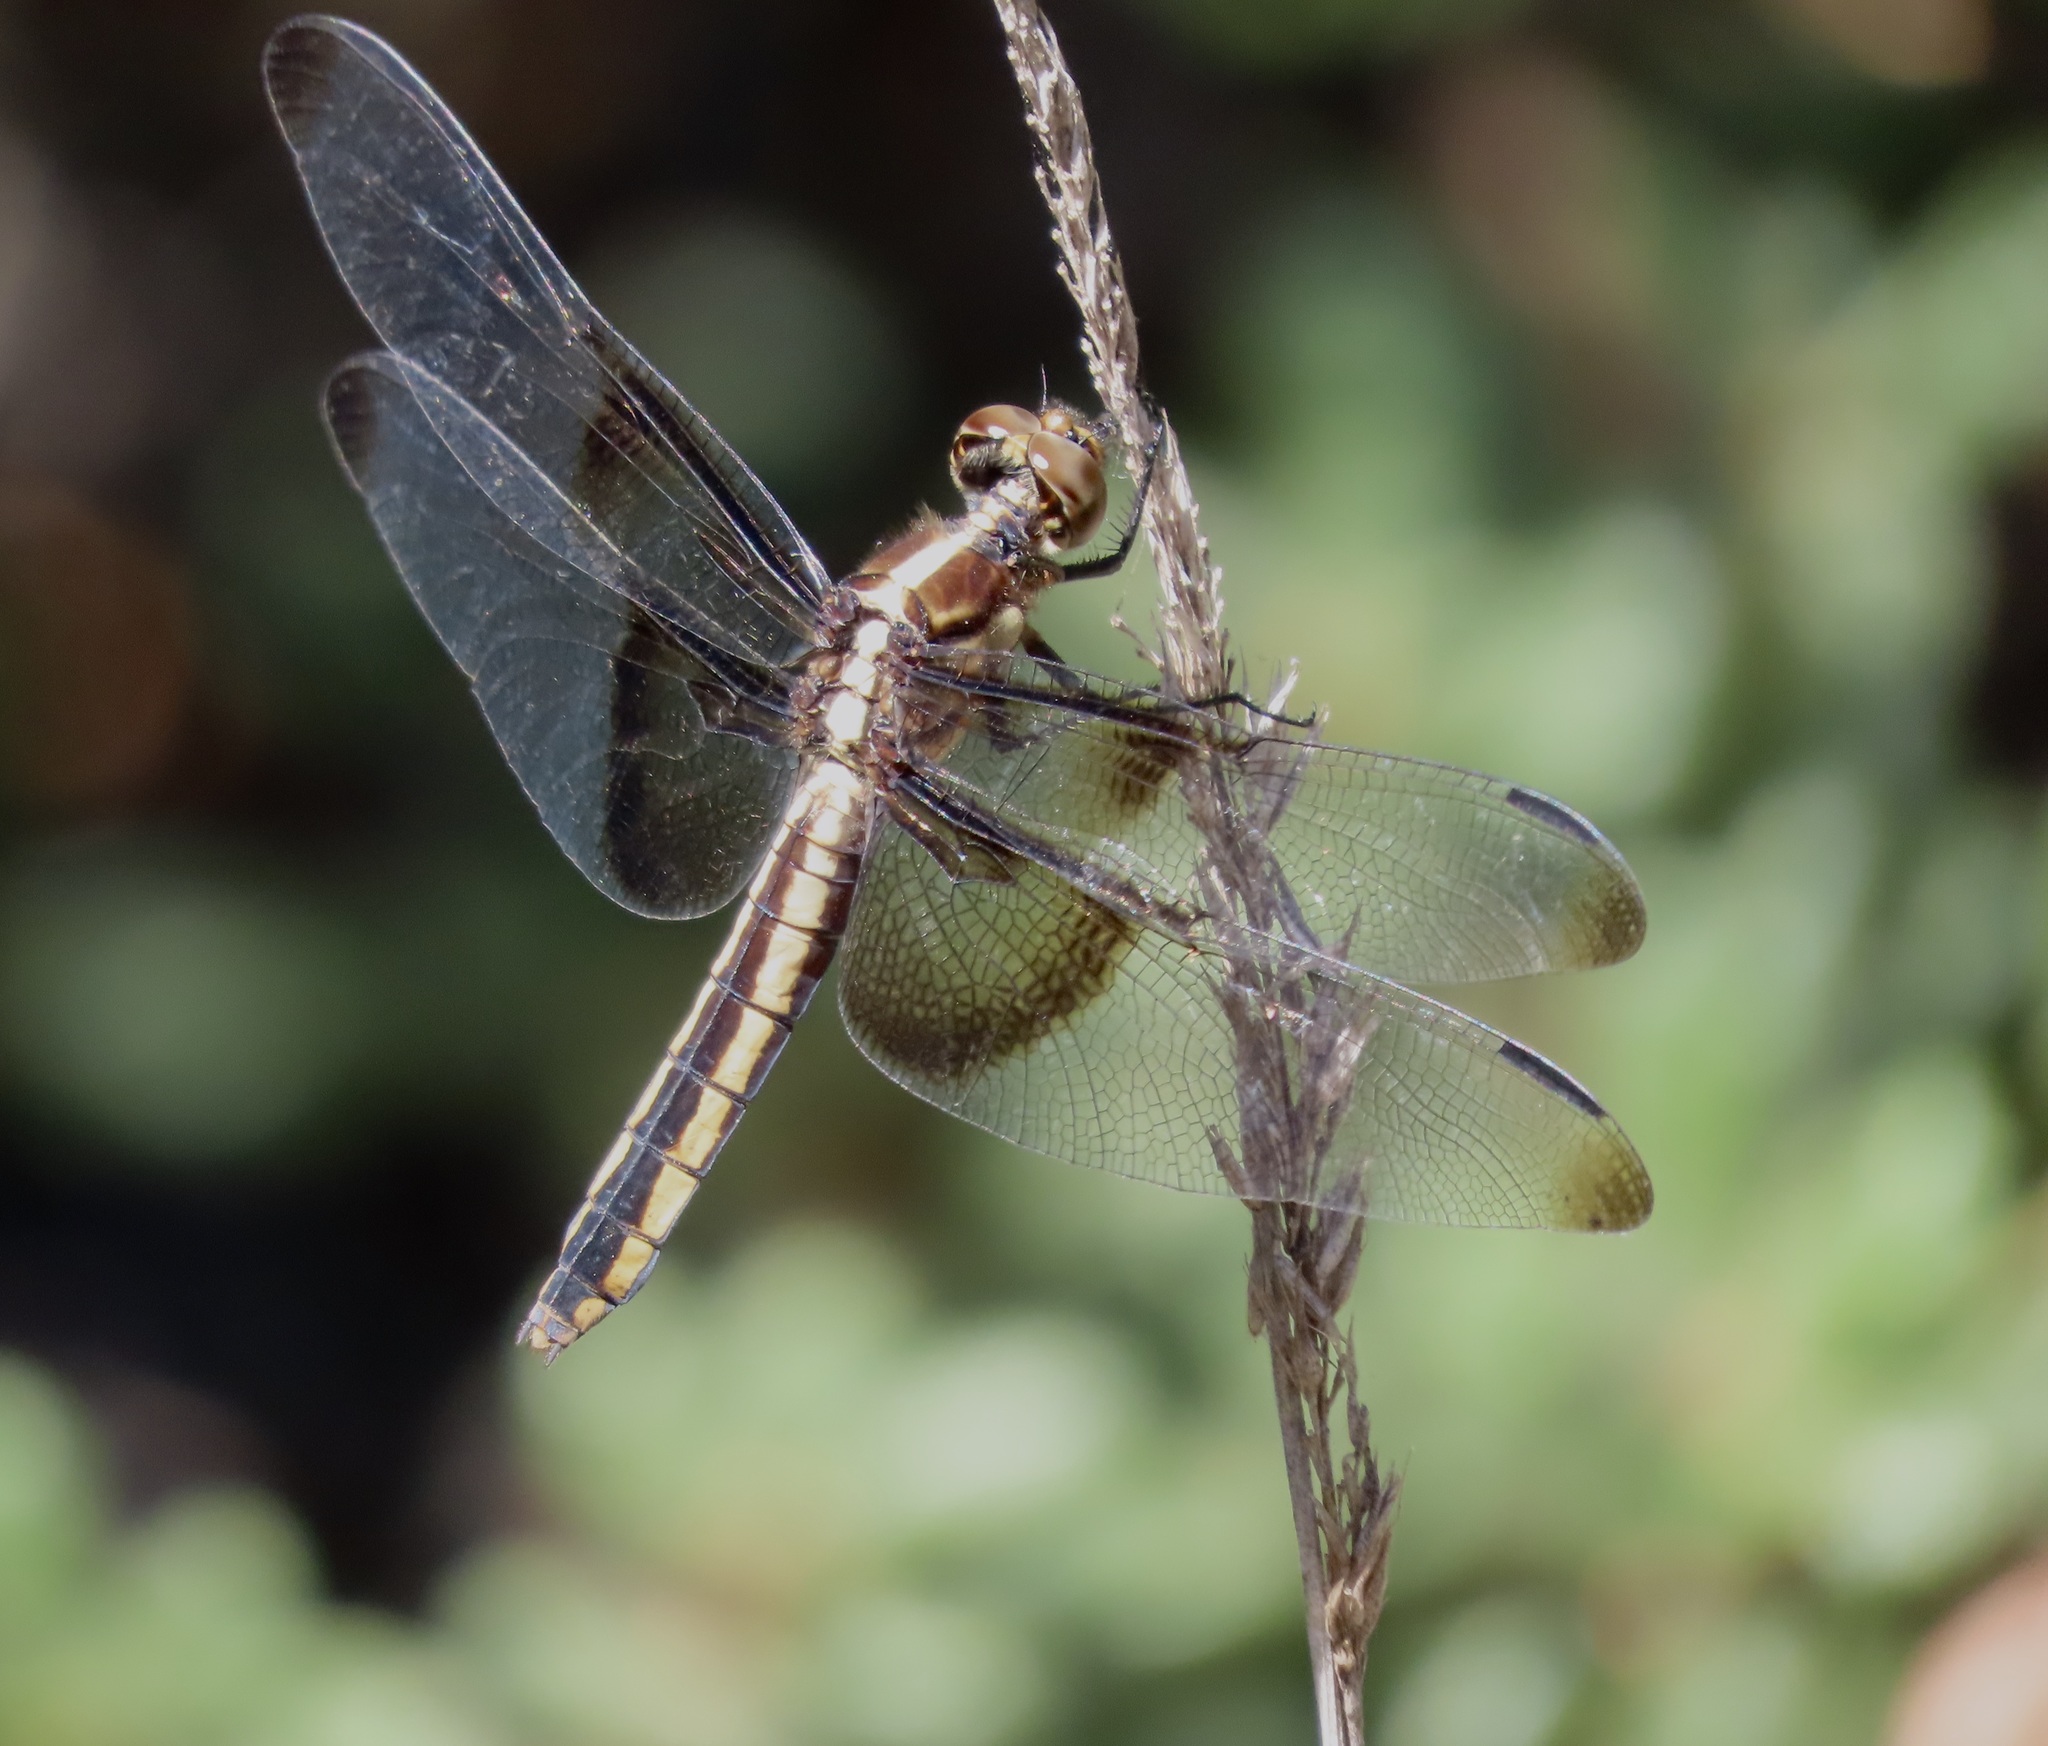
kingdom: Animalia
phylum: Arthropoda
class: Insecta
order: Odonata
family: Libellulidae
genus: Libellula
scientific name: Libellula luctuosa
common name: Widow skimmer
